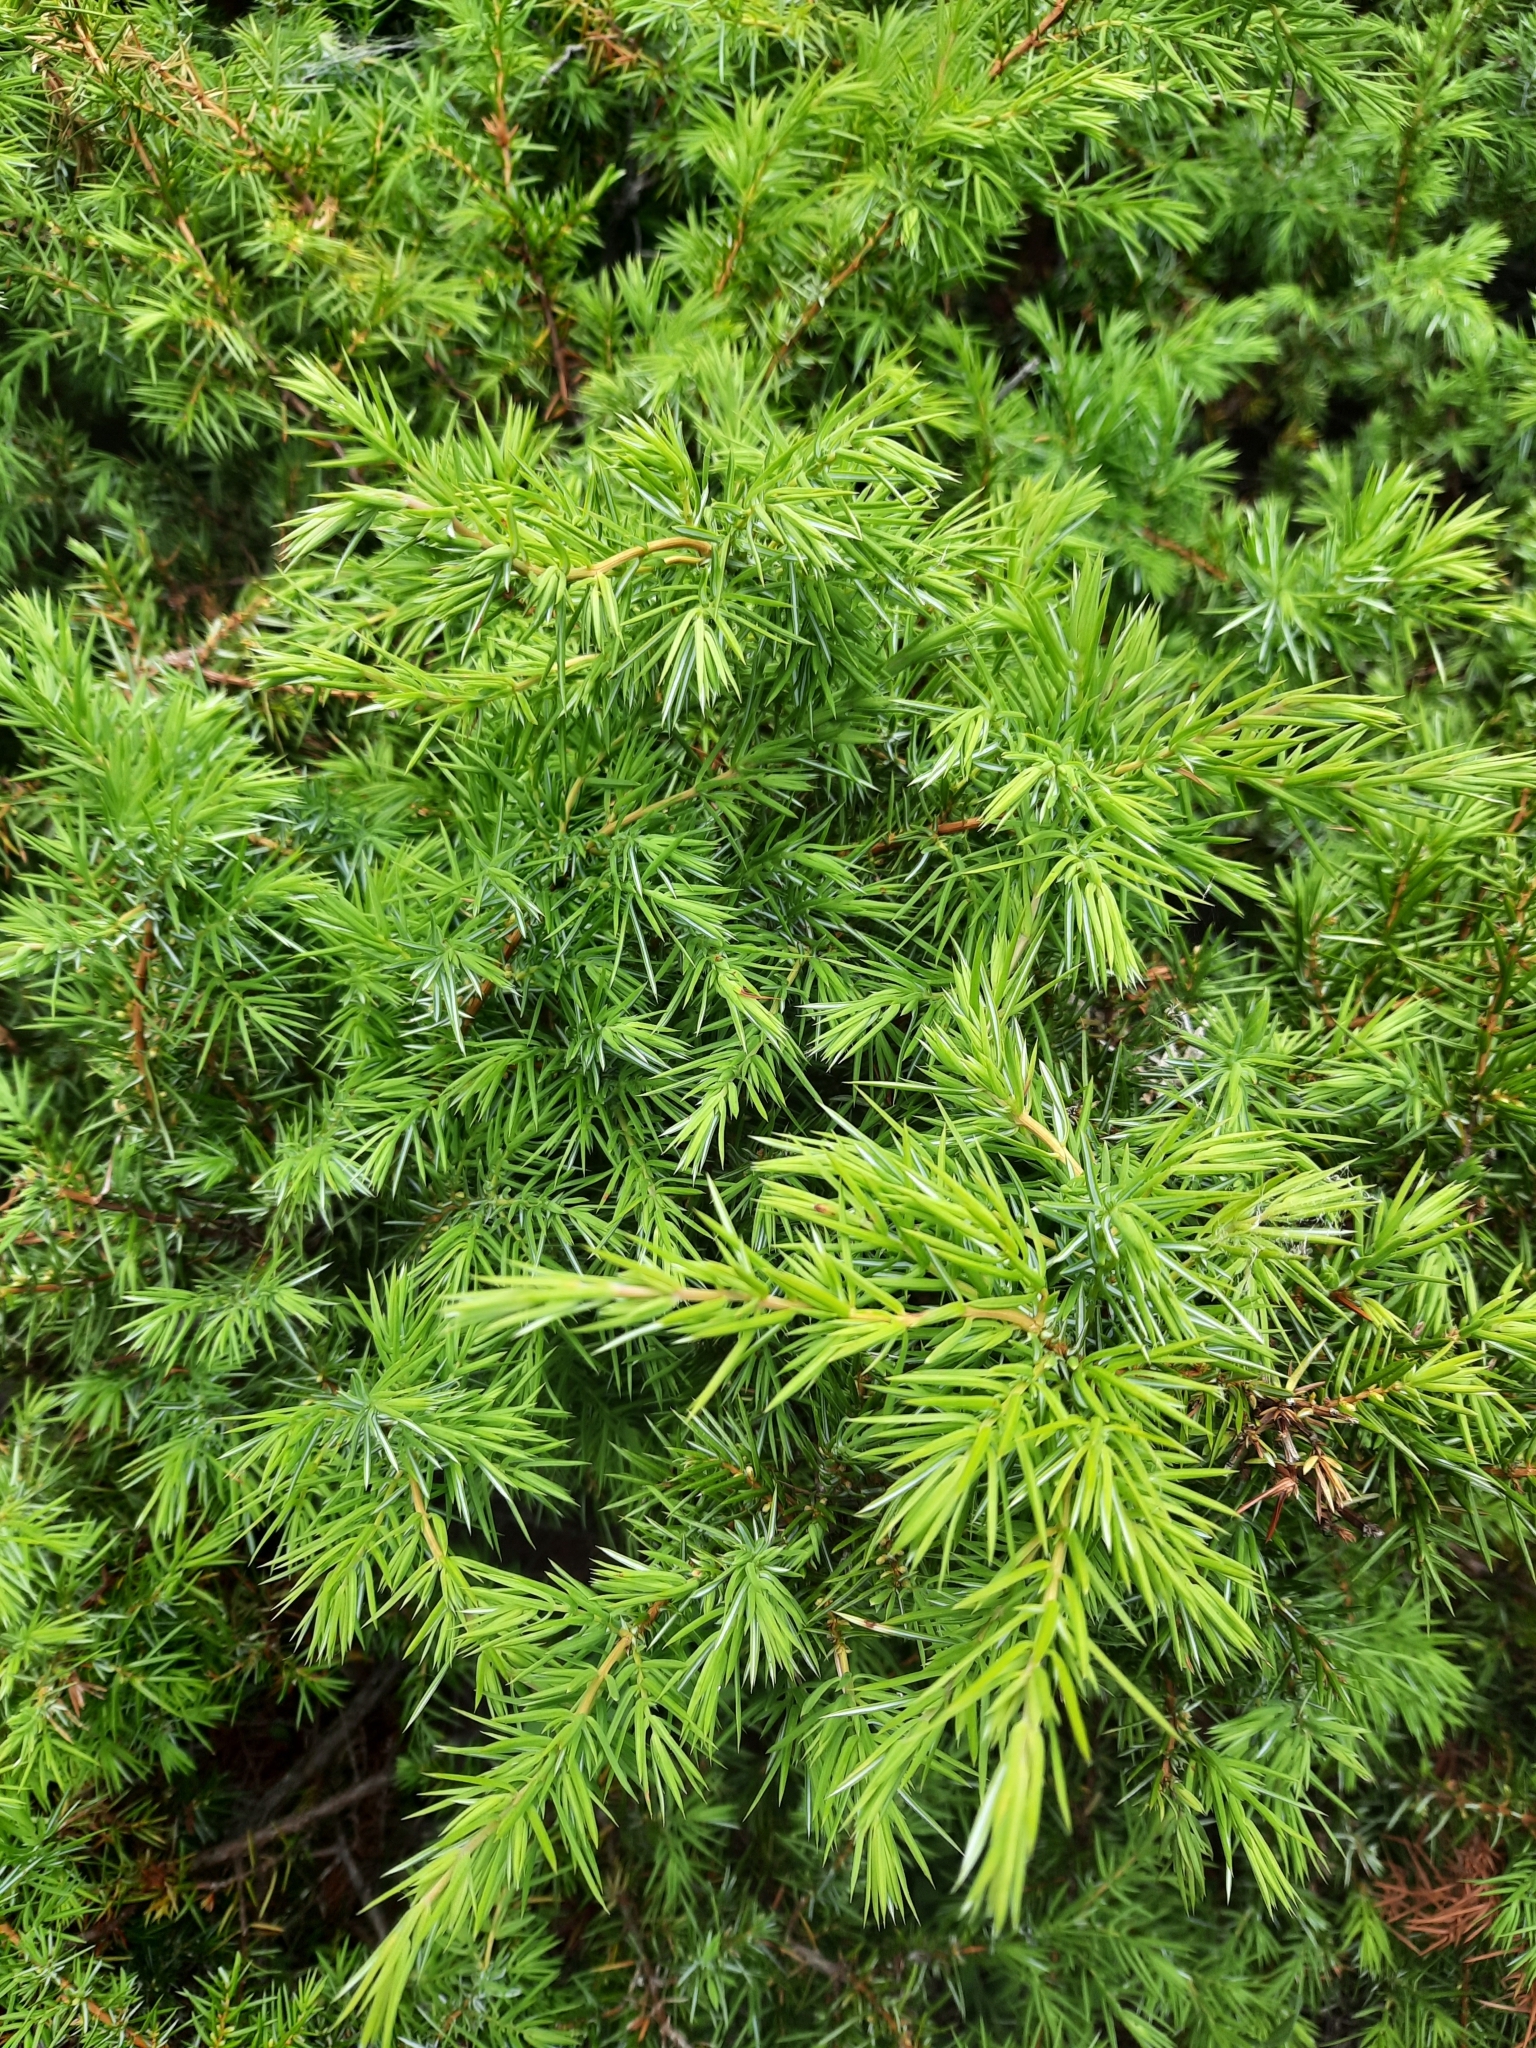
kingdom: Plantae
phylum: Tracheophyta
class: Pinopsida
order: Pinales
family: Cupressaceae
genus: Juniperus
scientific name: Juniperus communis
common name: Common juniper
